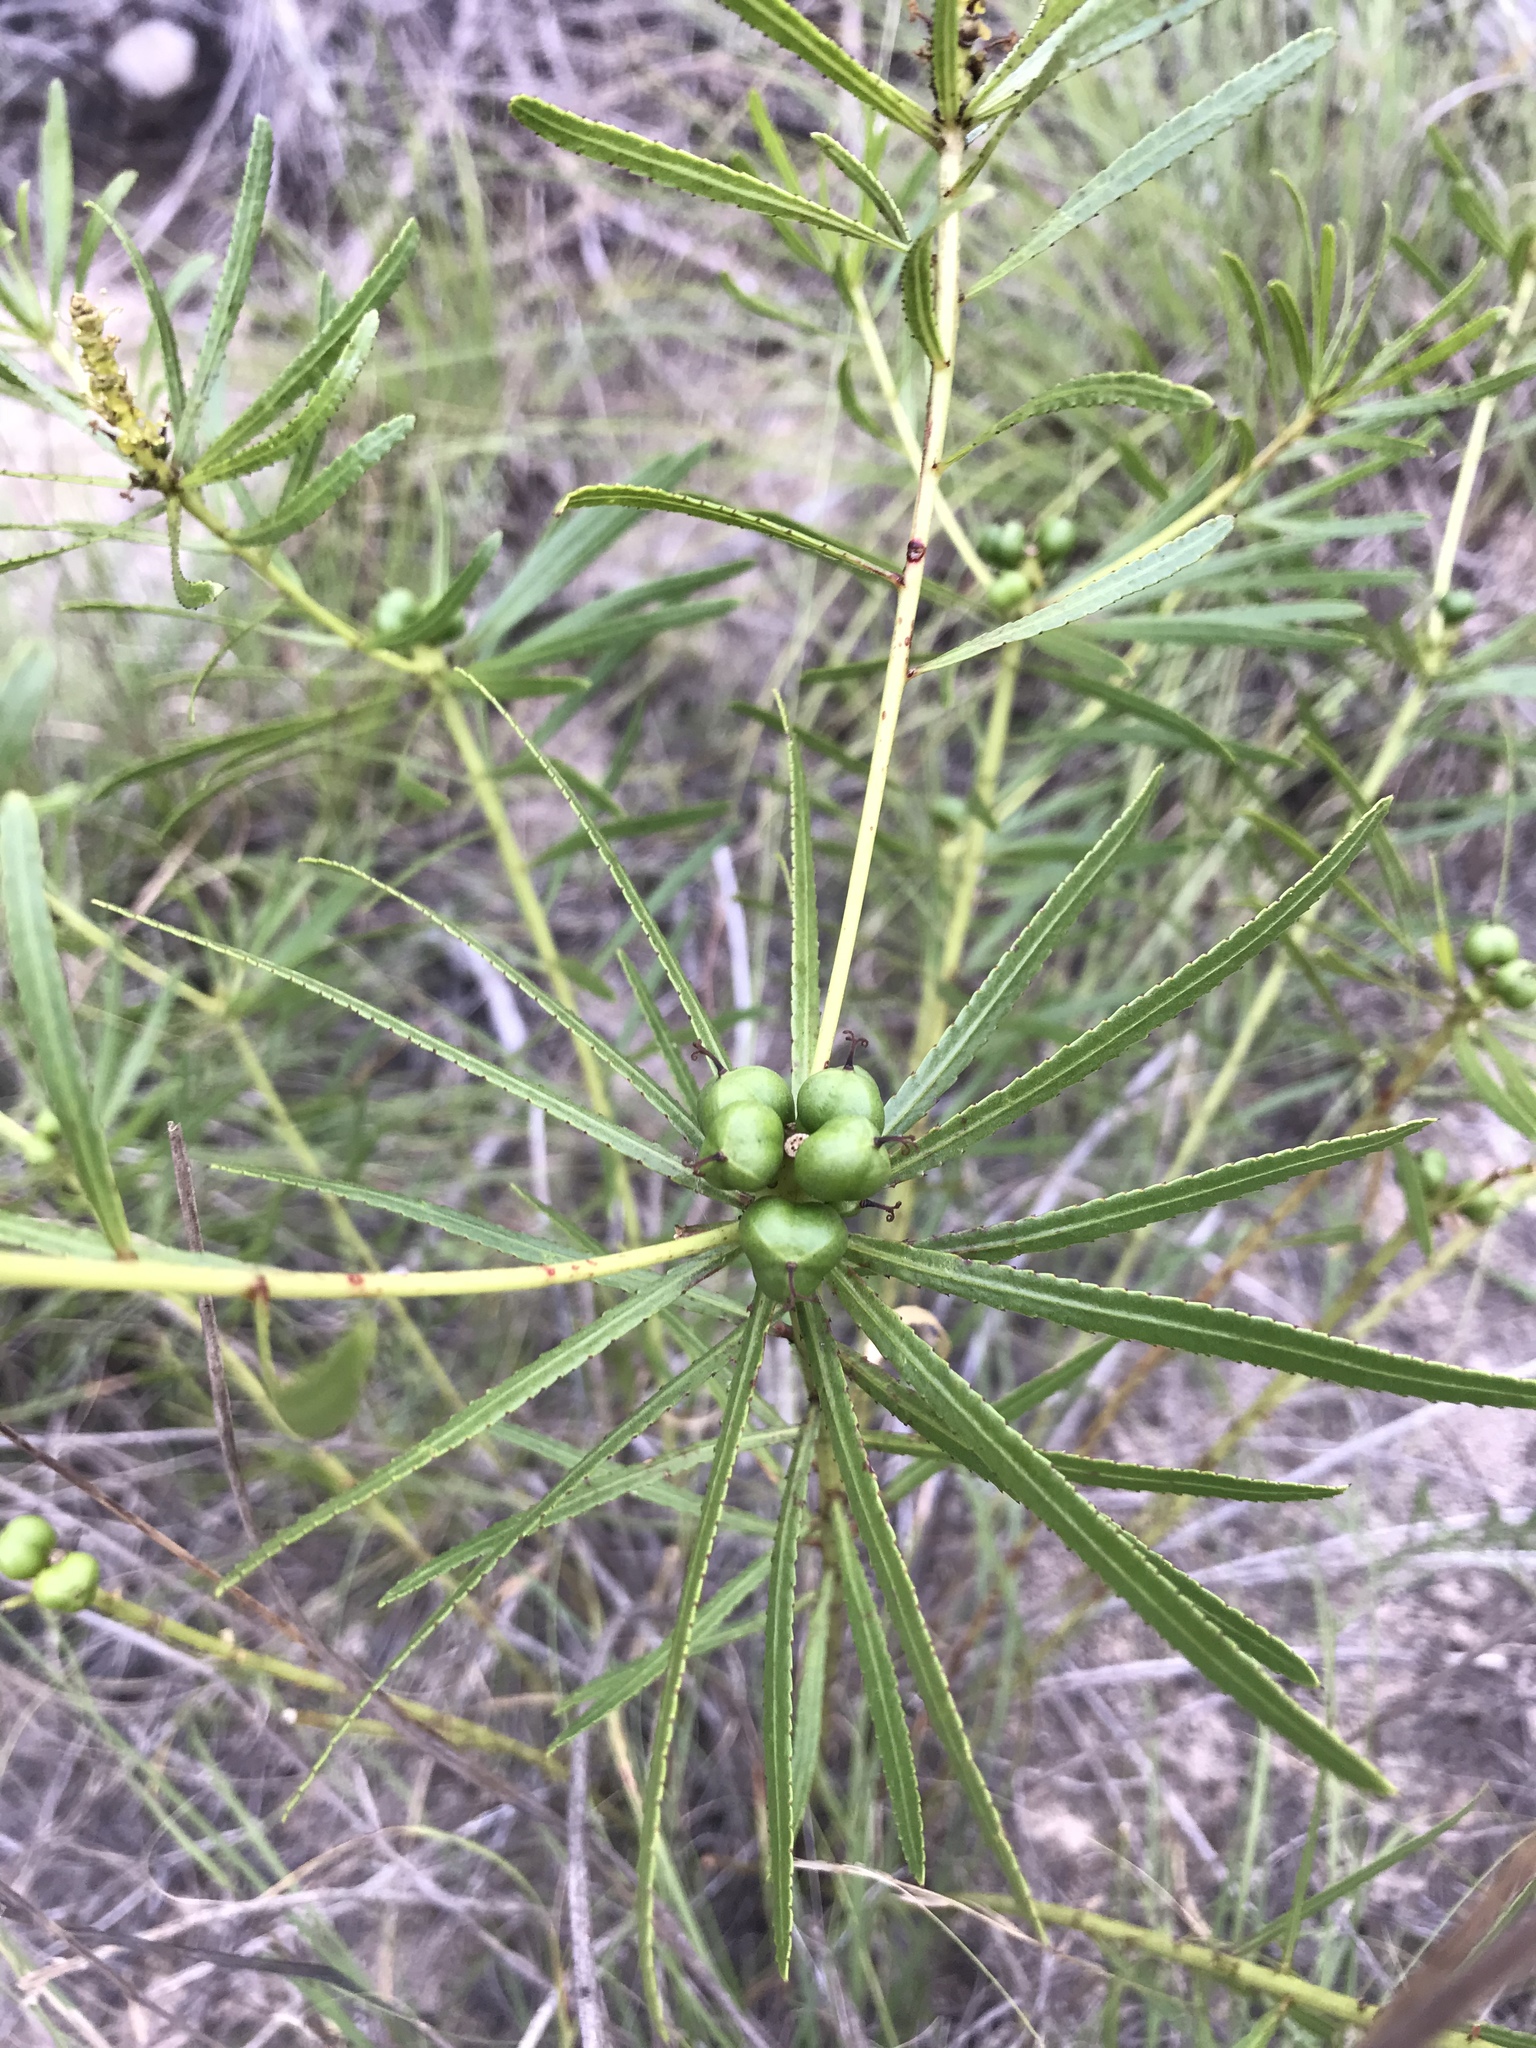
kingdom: Plantae
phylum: Tracheophyta
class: Magnoliopsida
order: Malpighiales
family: Euphorbiaceae
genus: Stillingia
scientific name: Stillingia texana
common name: Texas stillingia
